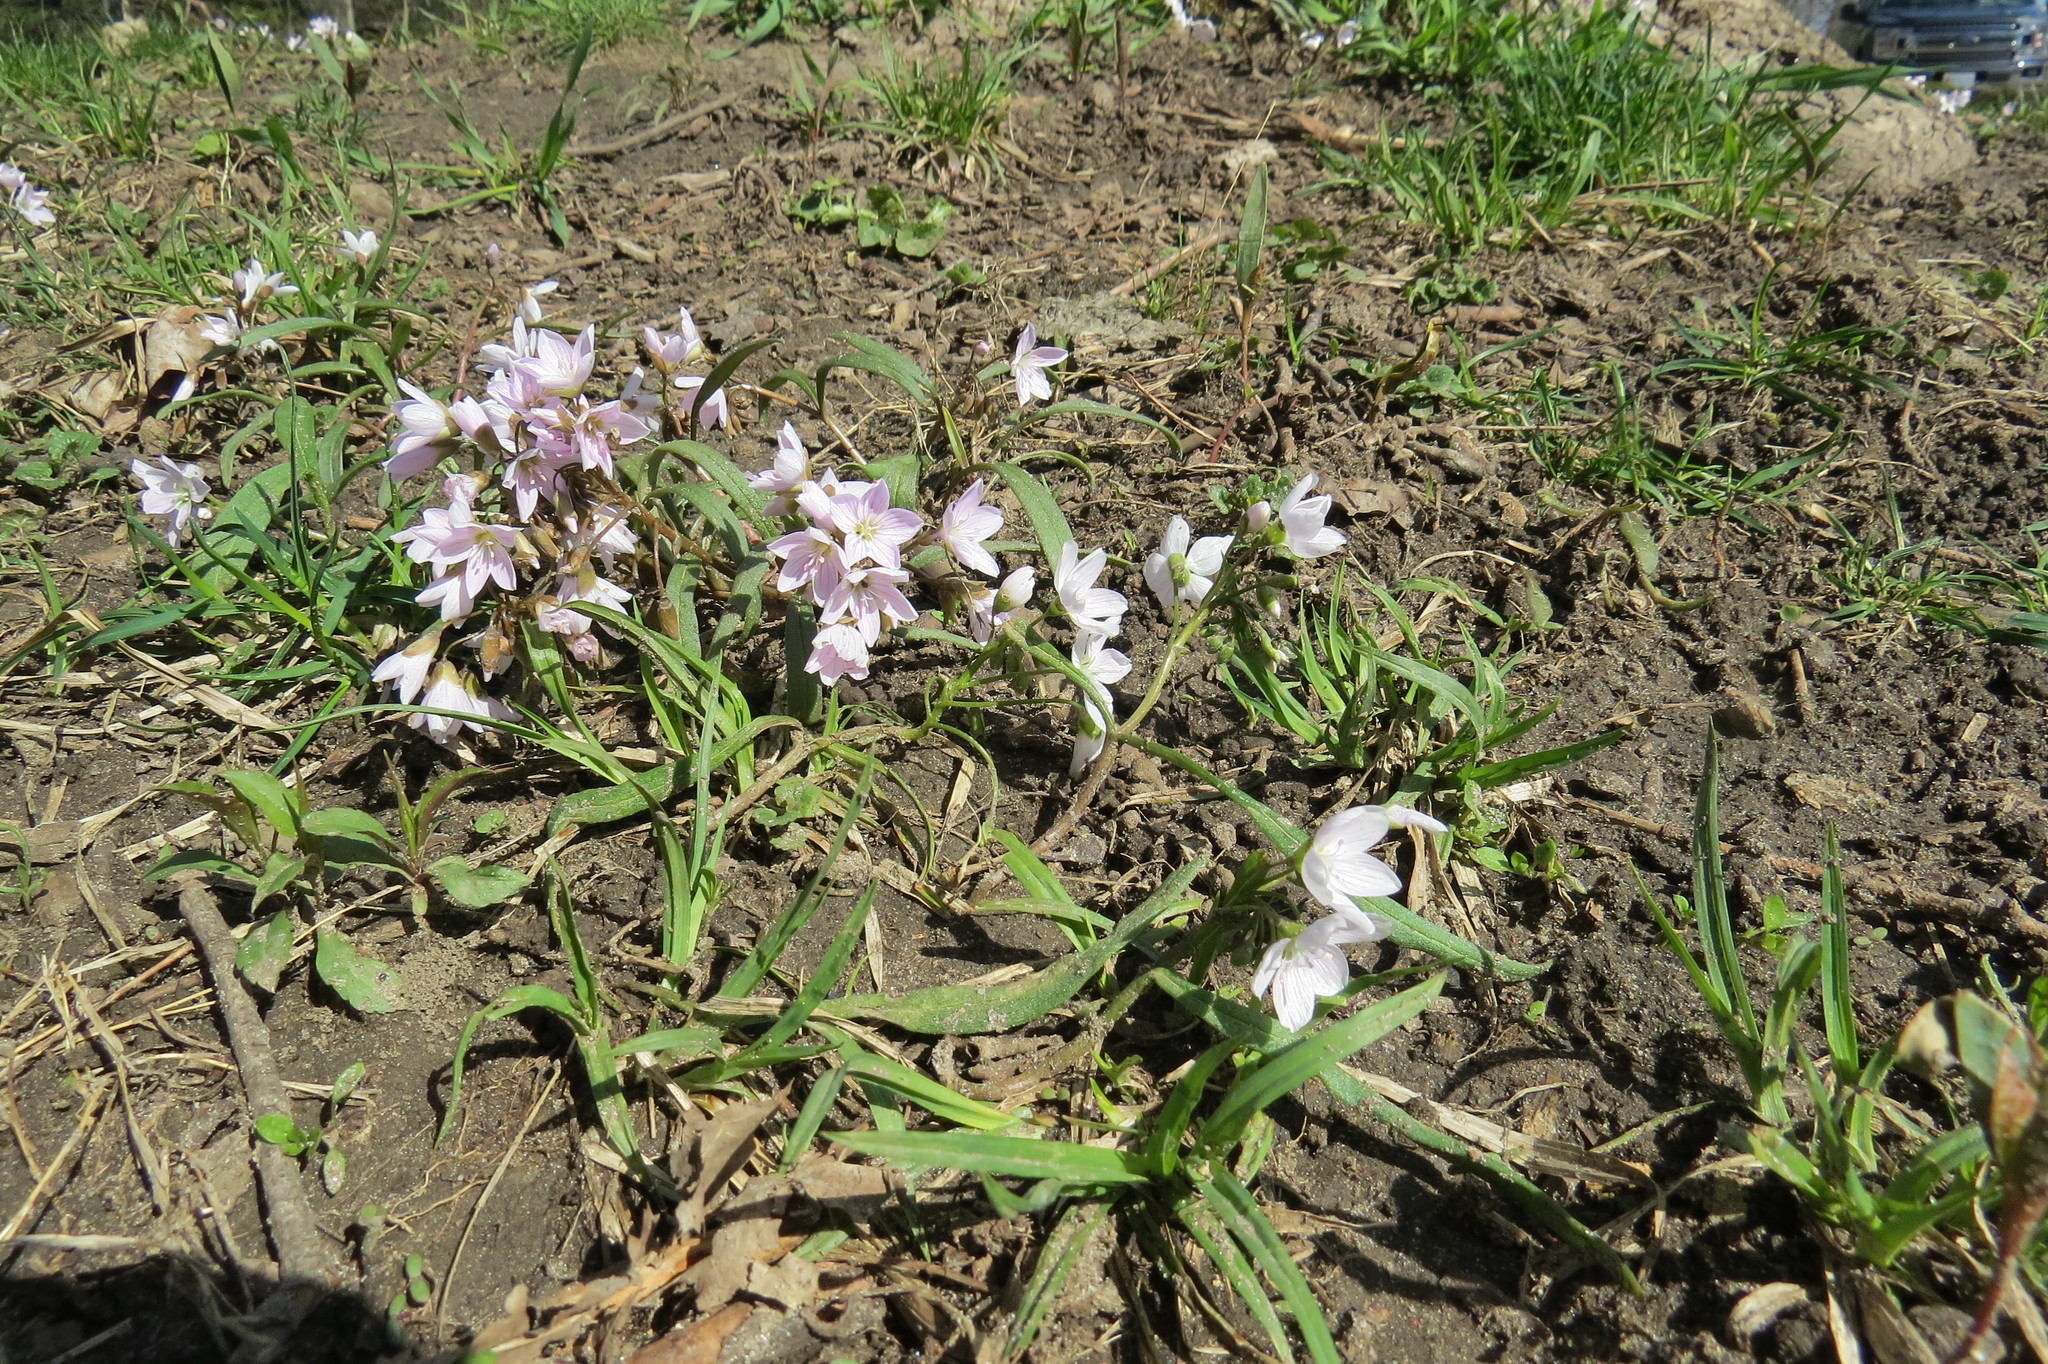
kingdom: Plantae
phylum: Tracheophyta
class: Magnoliopsida
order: Caryophyllales
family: Montiaceae
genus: Claytonia
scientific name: Claytonia virginica
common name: Virginia springbeauty
